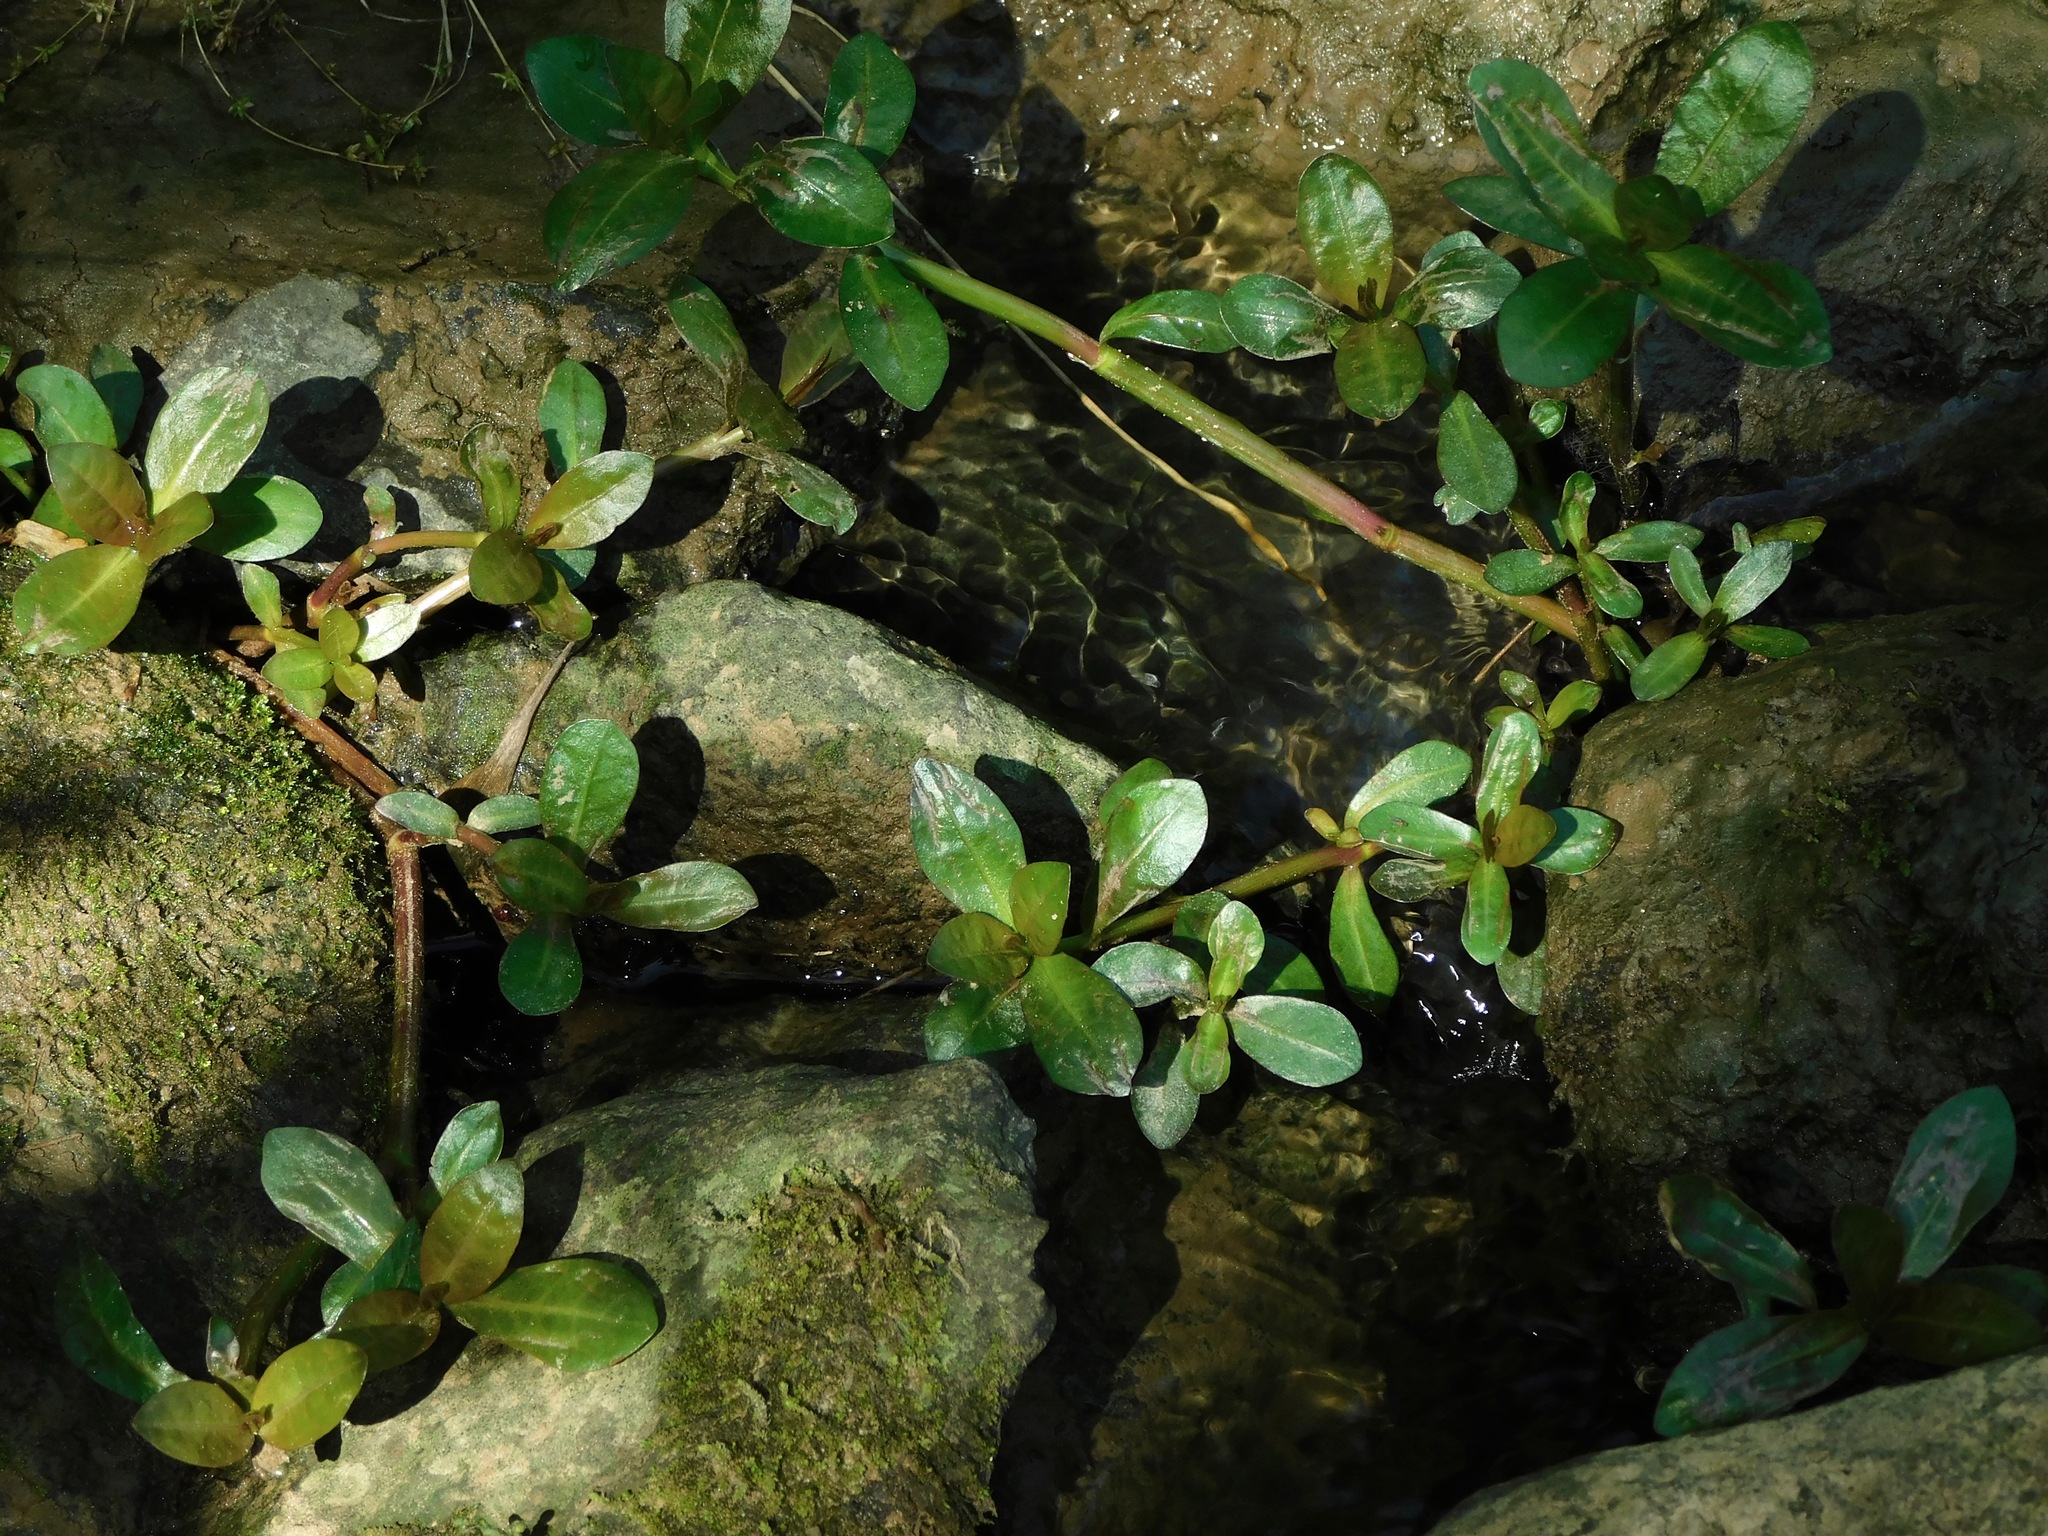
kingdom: Plantae
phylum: Tracheophyta
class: Magnoliopsida
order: Caryophyllales
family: Amaranthaceae
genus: Alternanthera
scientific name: Alternanthera philoxeroides
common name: Alligatorweed
